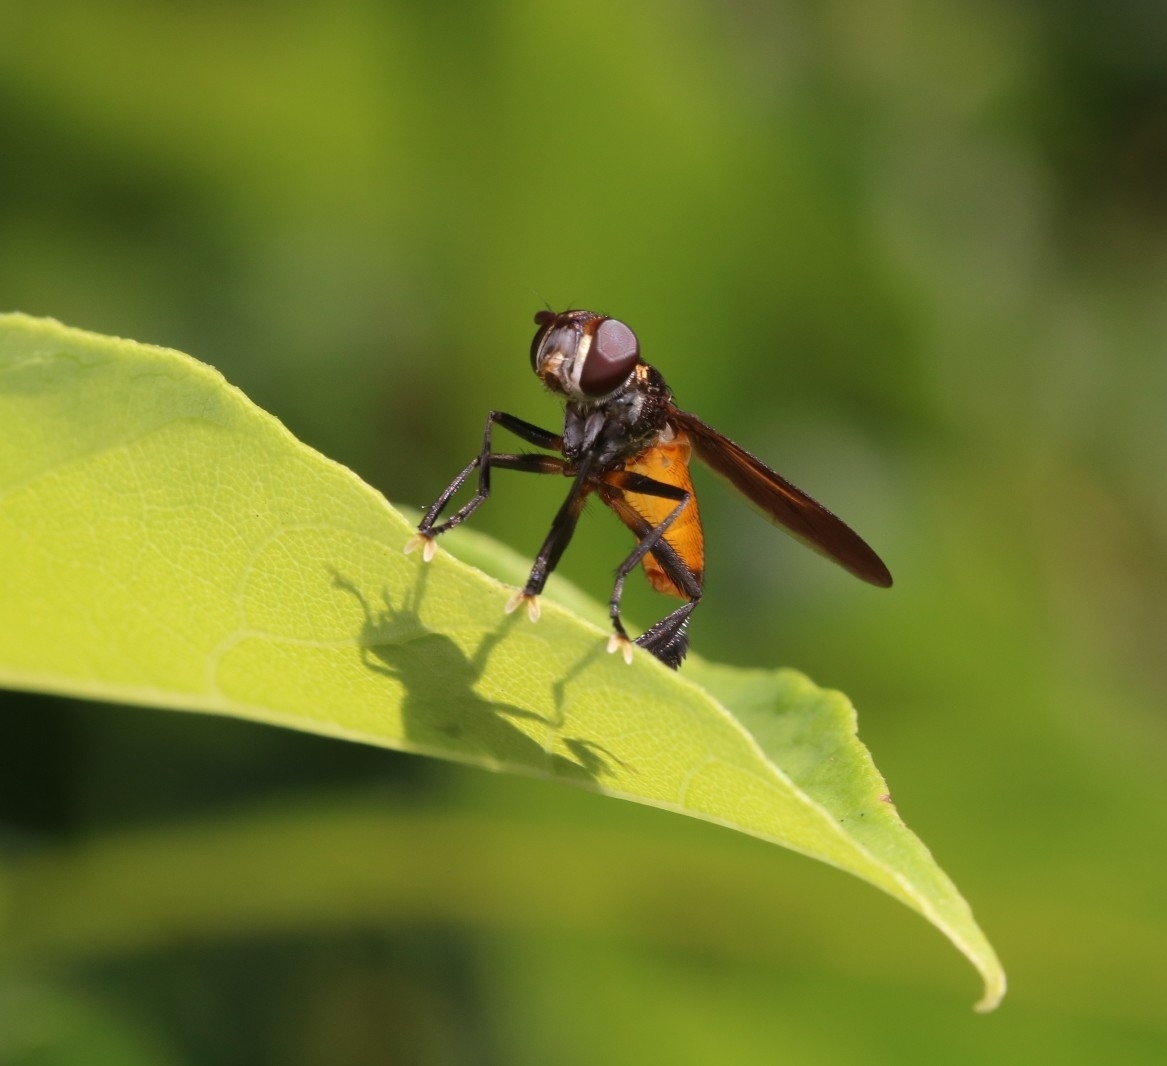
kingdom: Animalia
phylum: Arthropoda
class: Insecta
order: Diptera
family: Tachinidae
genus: Trichopoda
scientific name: Trichopoda pennipes
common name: Tachinid fly
